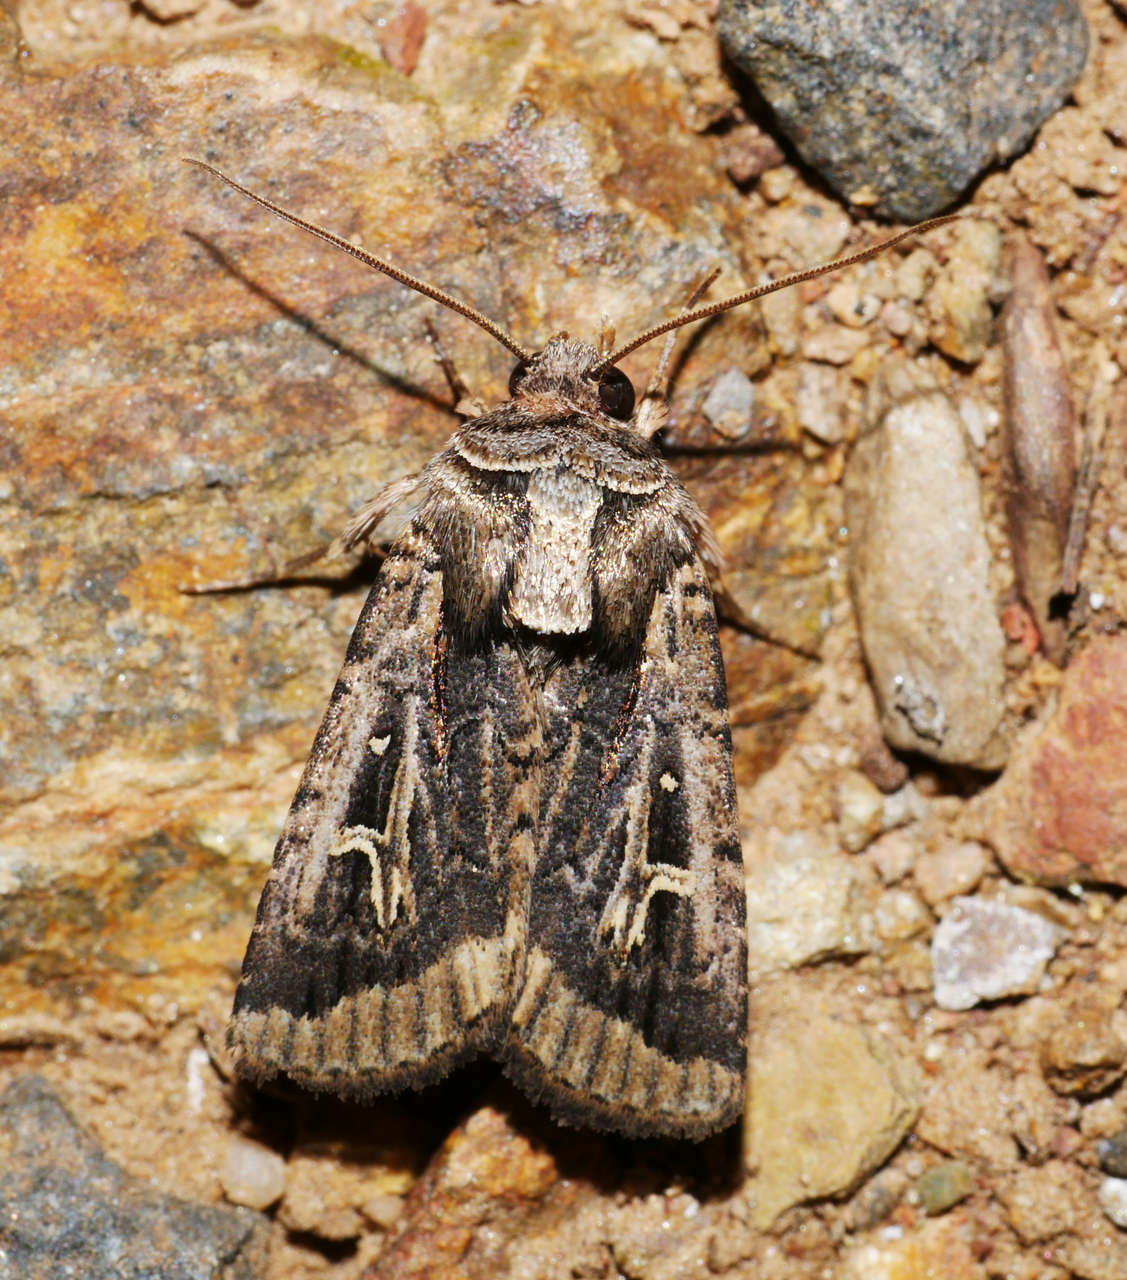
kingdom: Animalia
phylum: Arthropoda
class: Insecta
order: Lepidoptera
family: Noctuidae
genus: Proteuxoa
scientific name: Proteuxoa nuna
